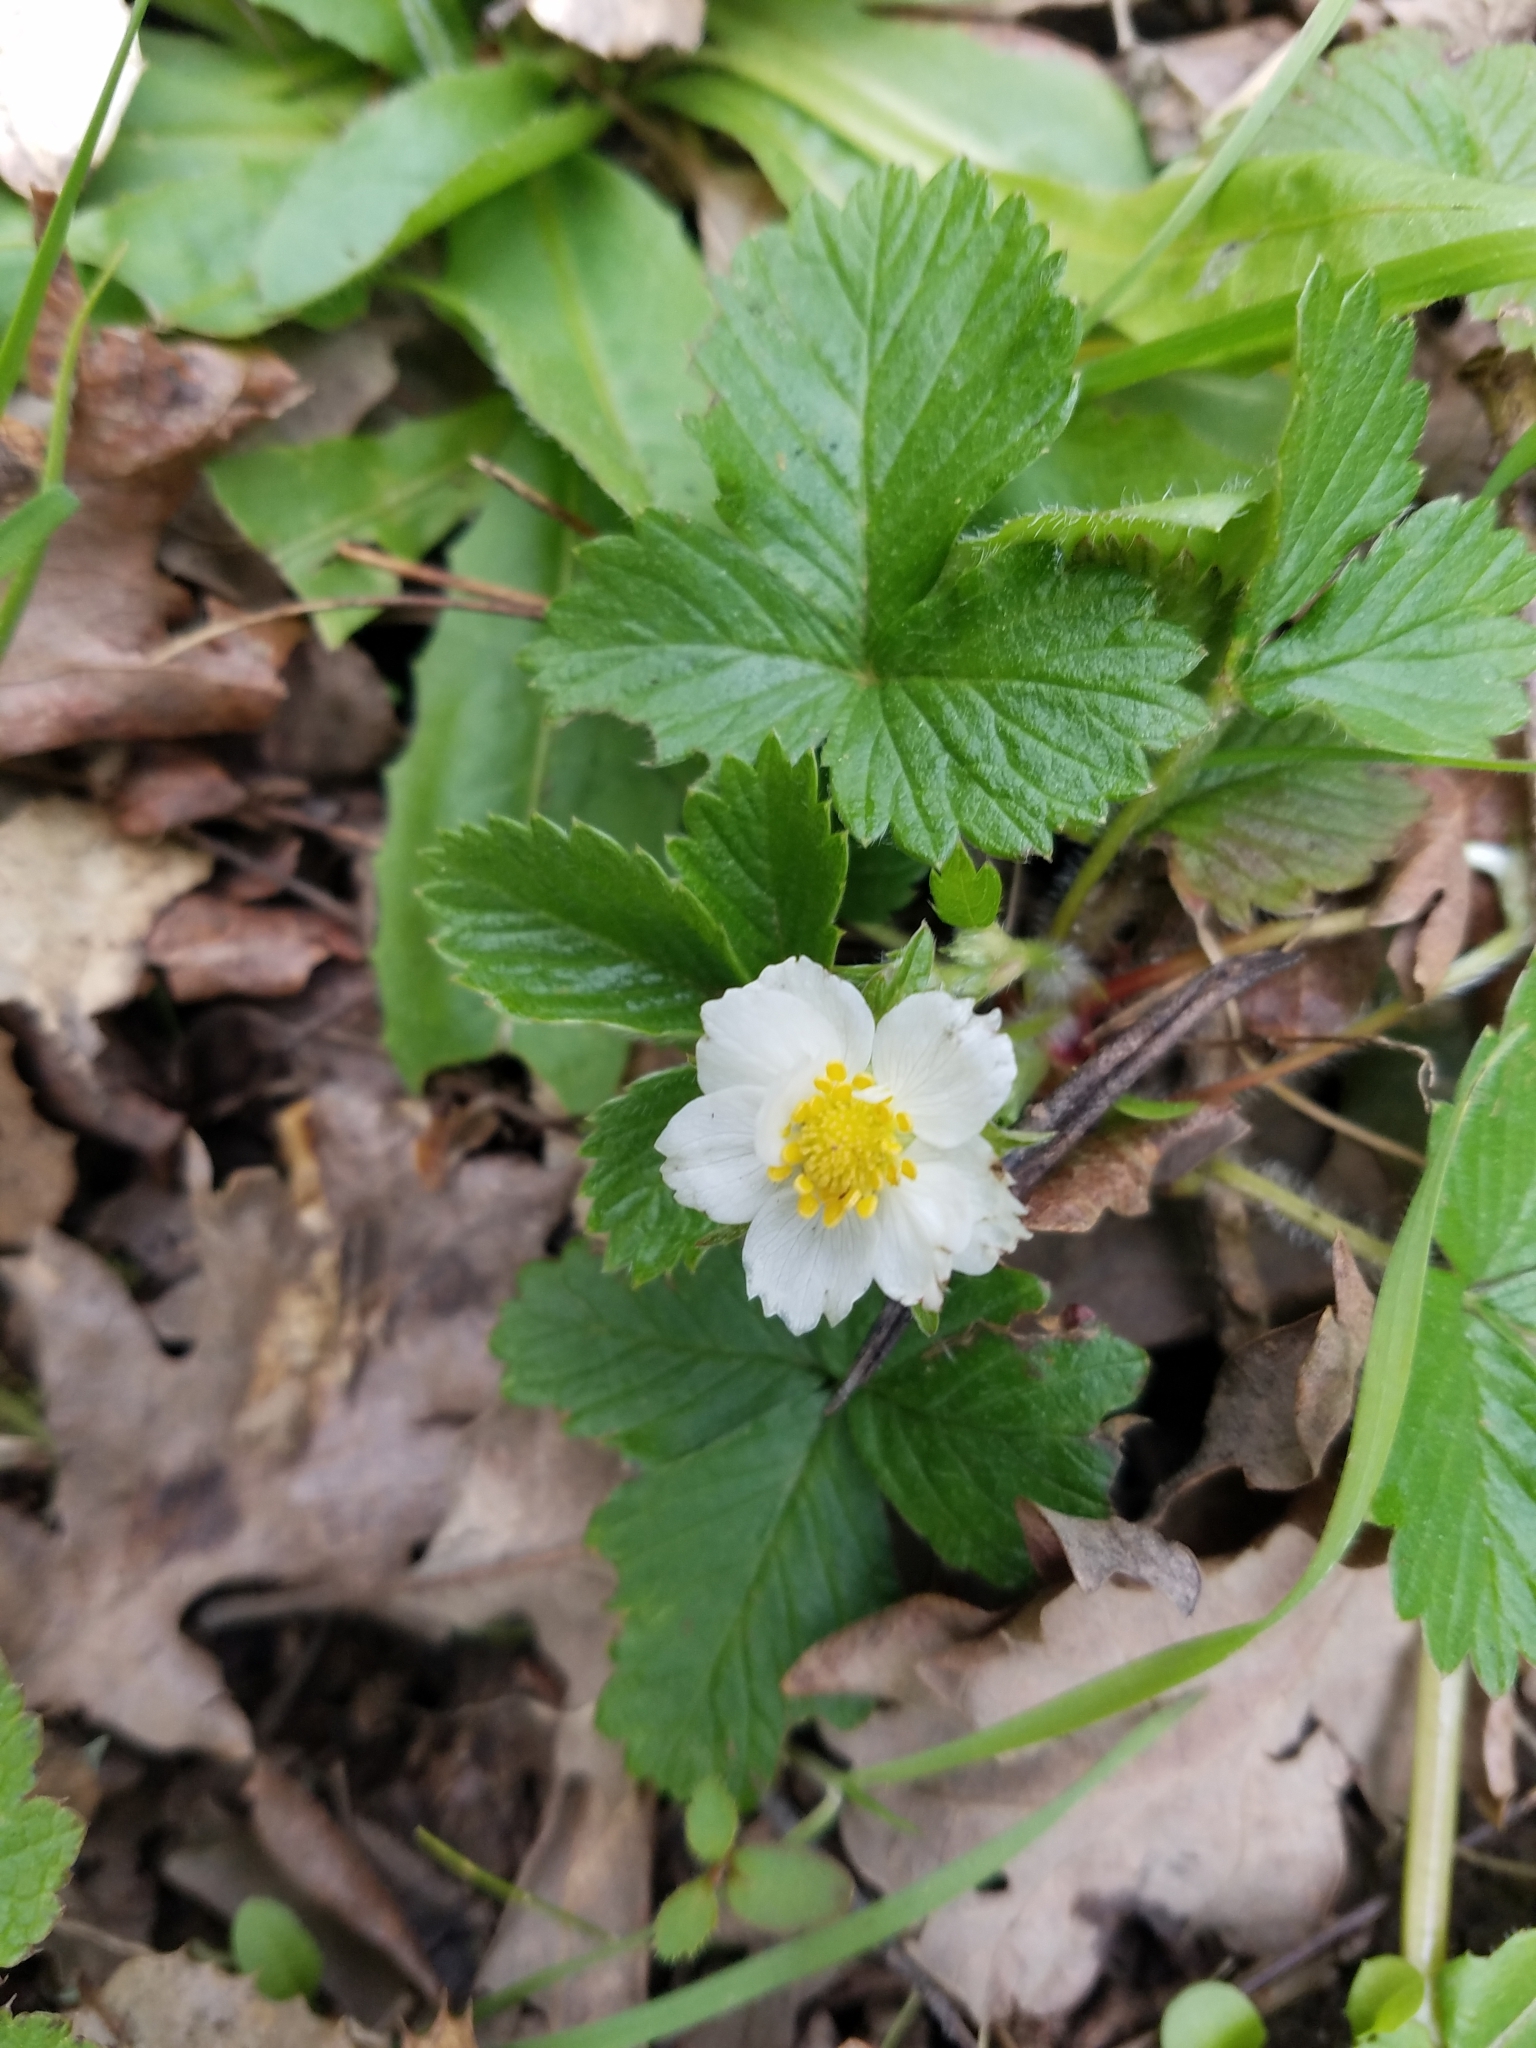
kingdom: Plantae
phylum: Tracheophyta
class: Magnoliopsida
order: Rosales
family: Rosaceae
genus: Fragaria
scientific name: Fragaria vesca
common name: Wild strawberry
